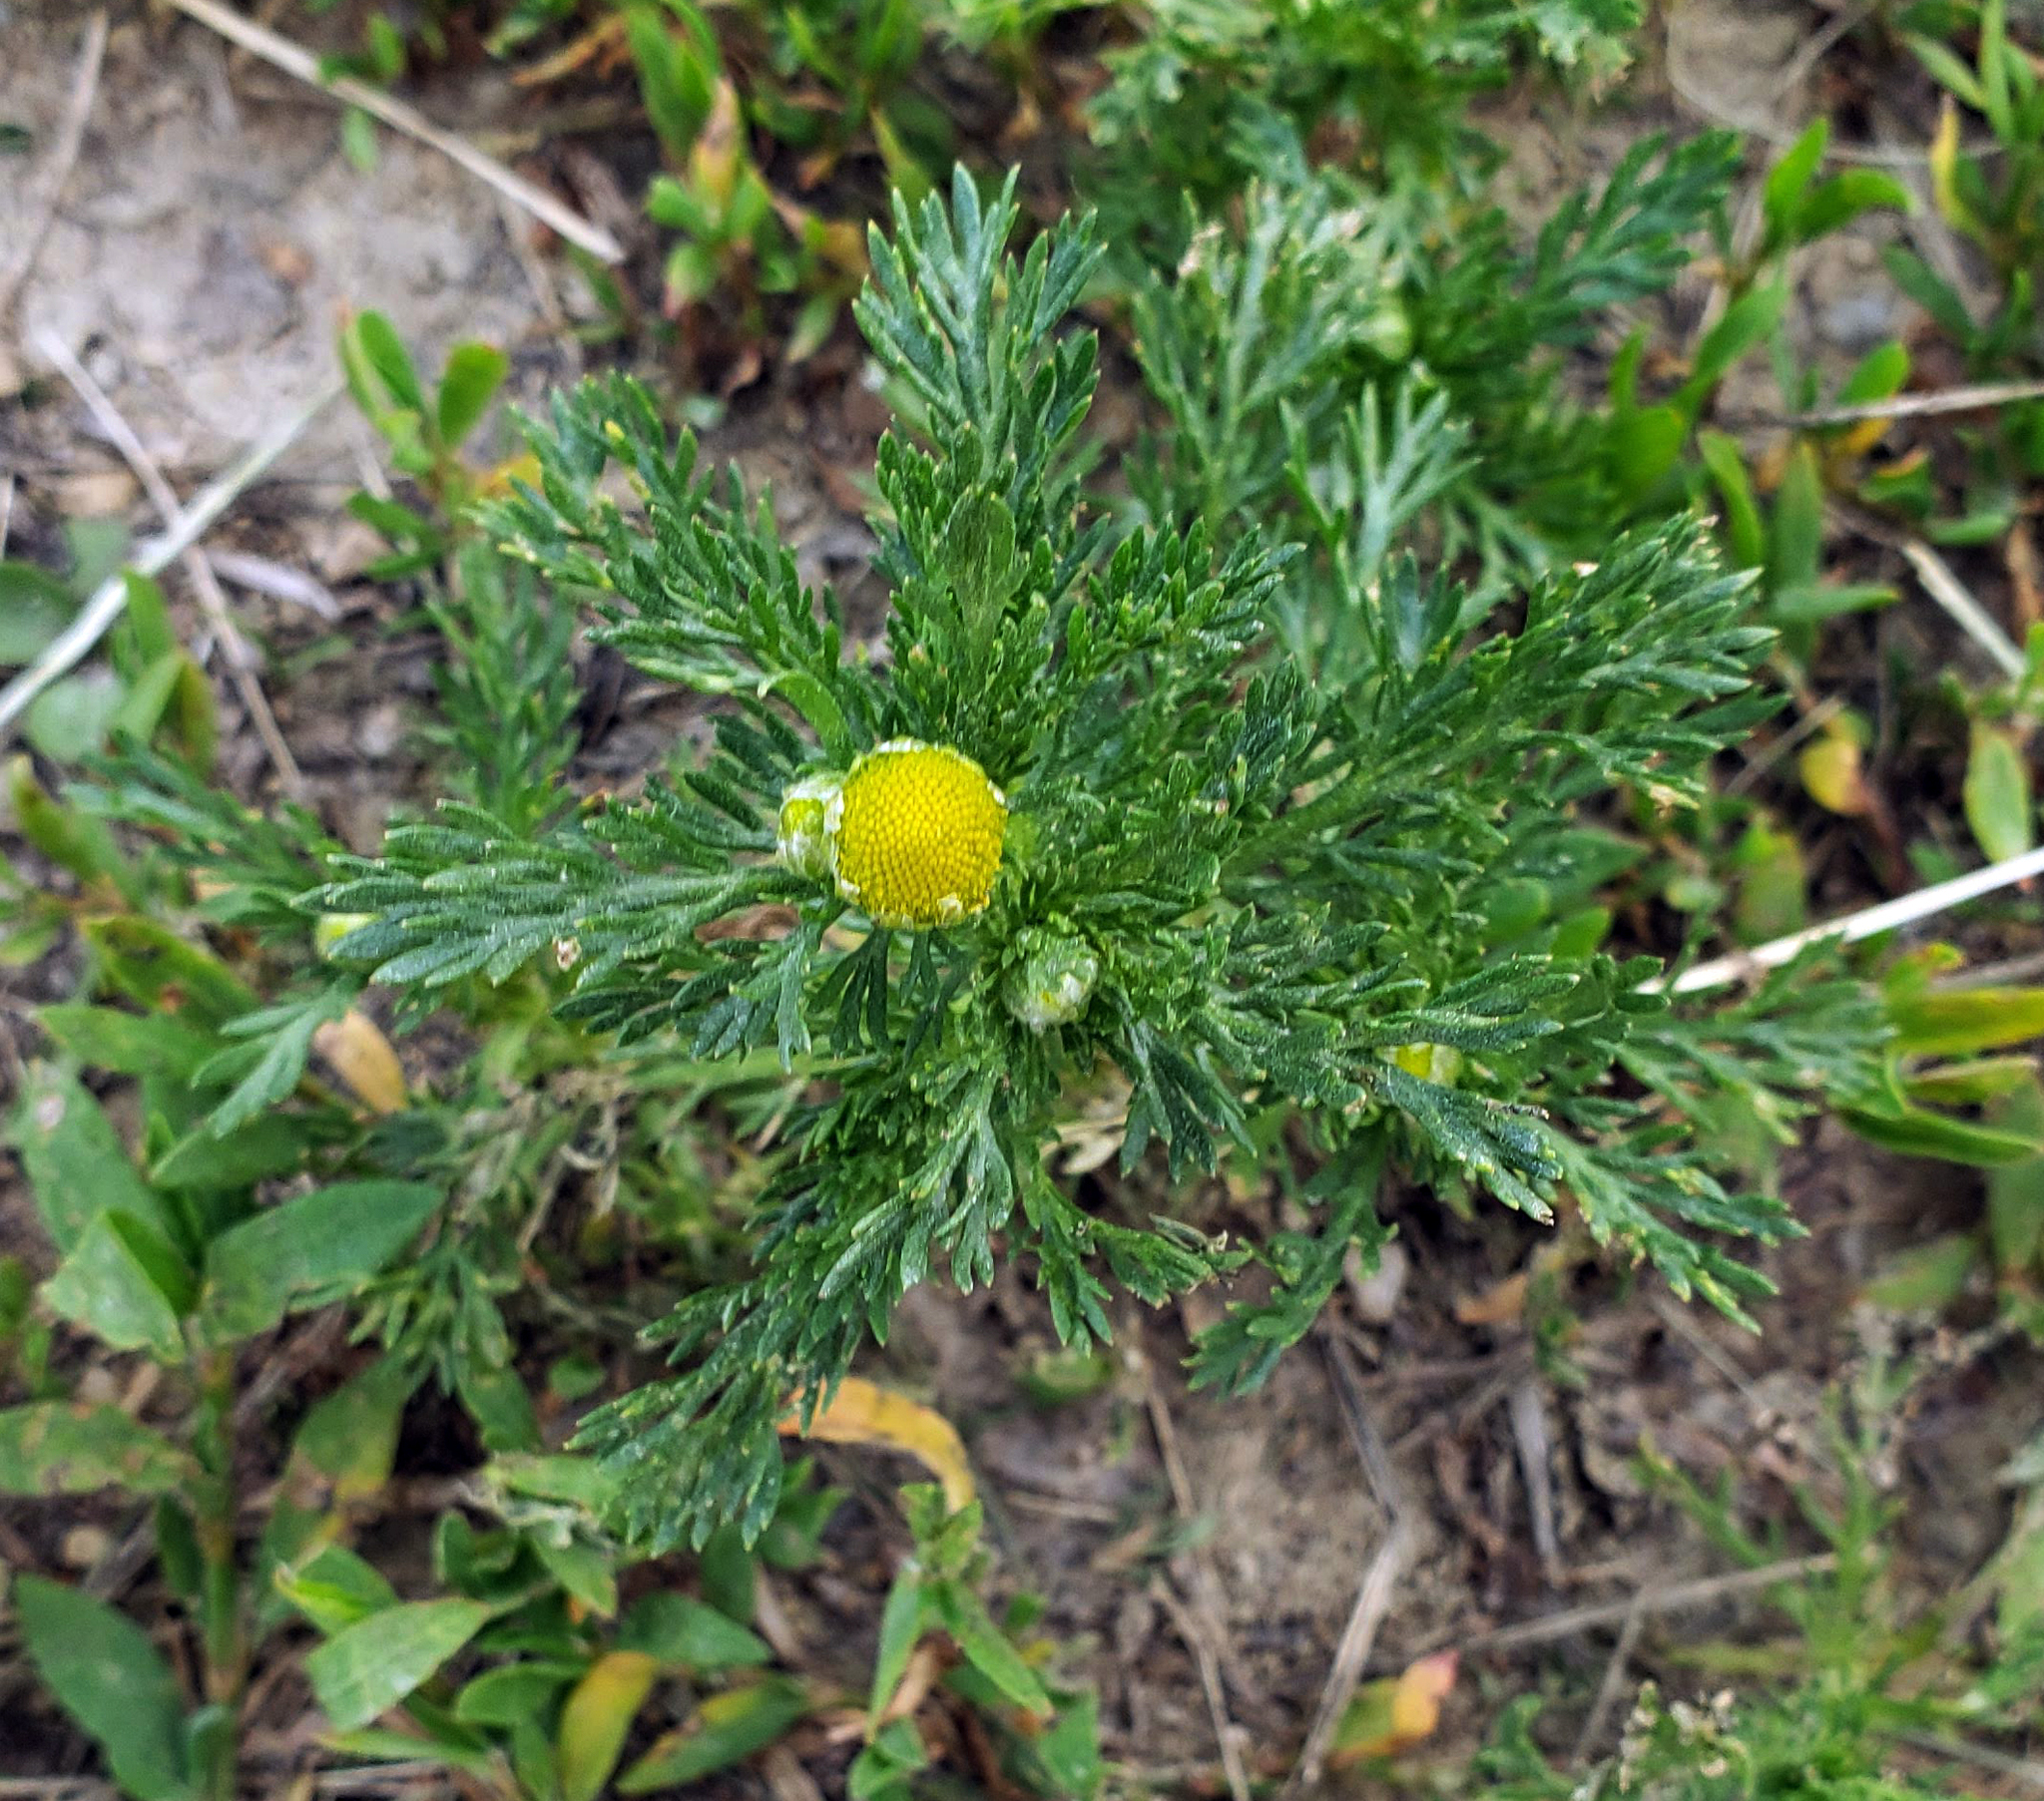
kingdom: Plantae
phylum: Tracheophyta
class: Magnoliopsida
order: Asterales
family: Asteraceae
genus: Matricaria
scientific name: Matricaria discoidea
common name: Disc mayweed
